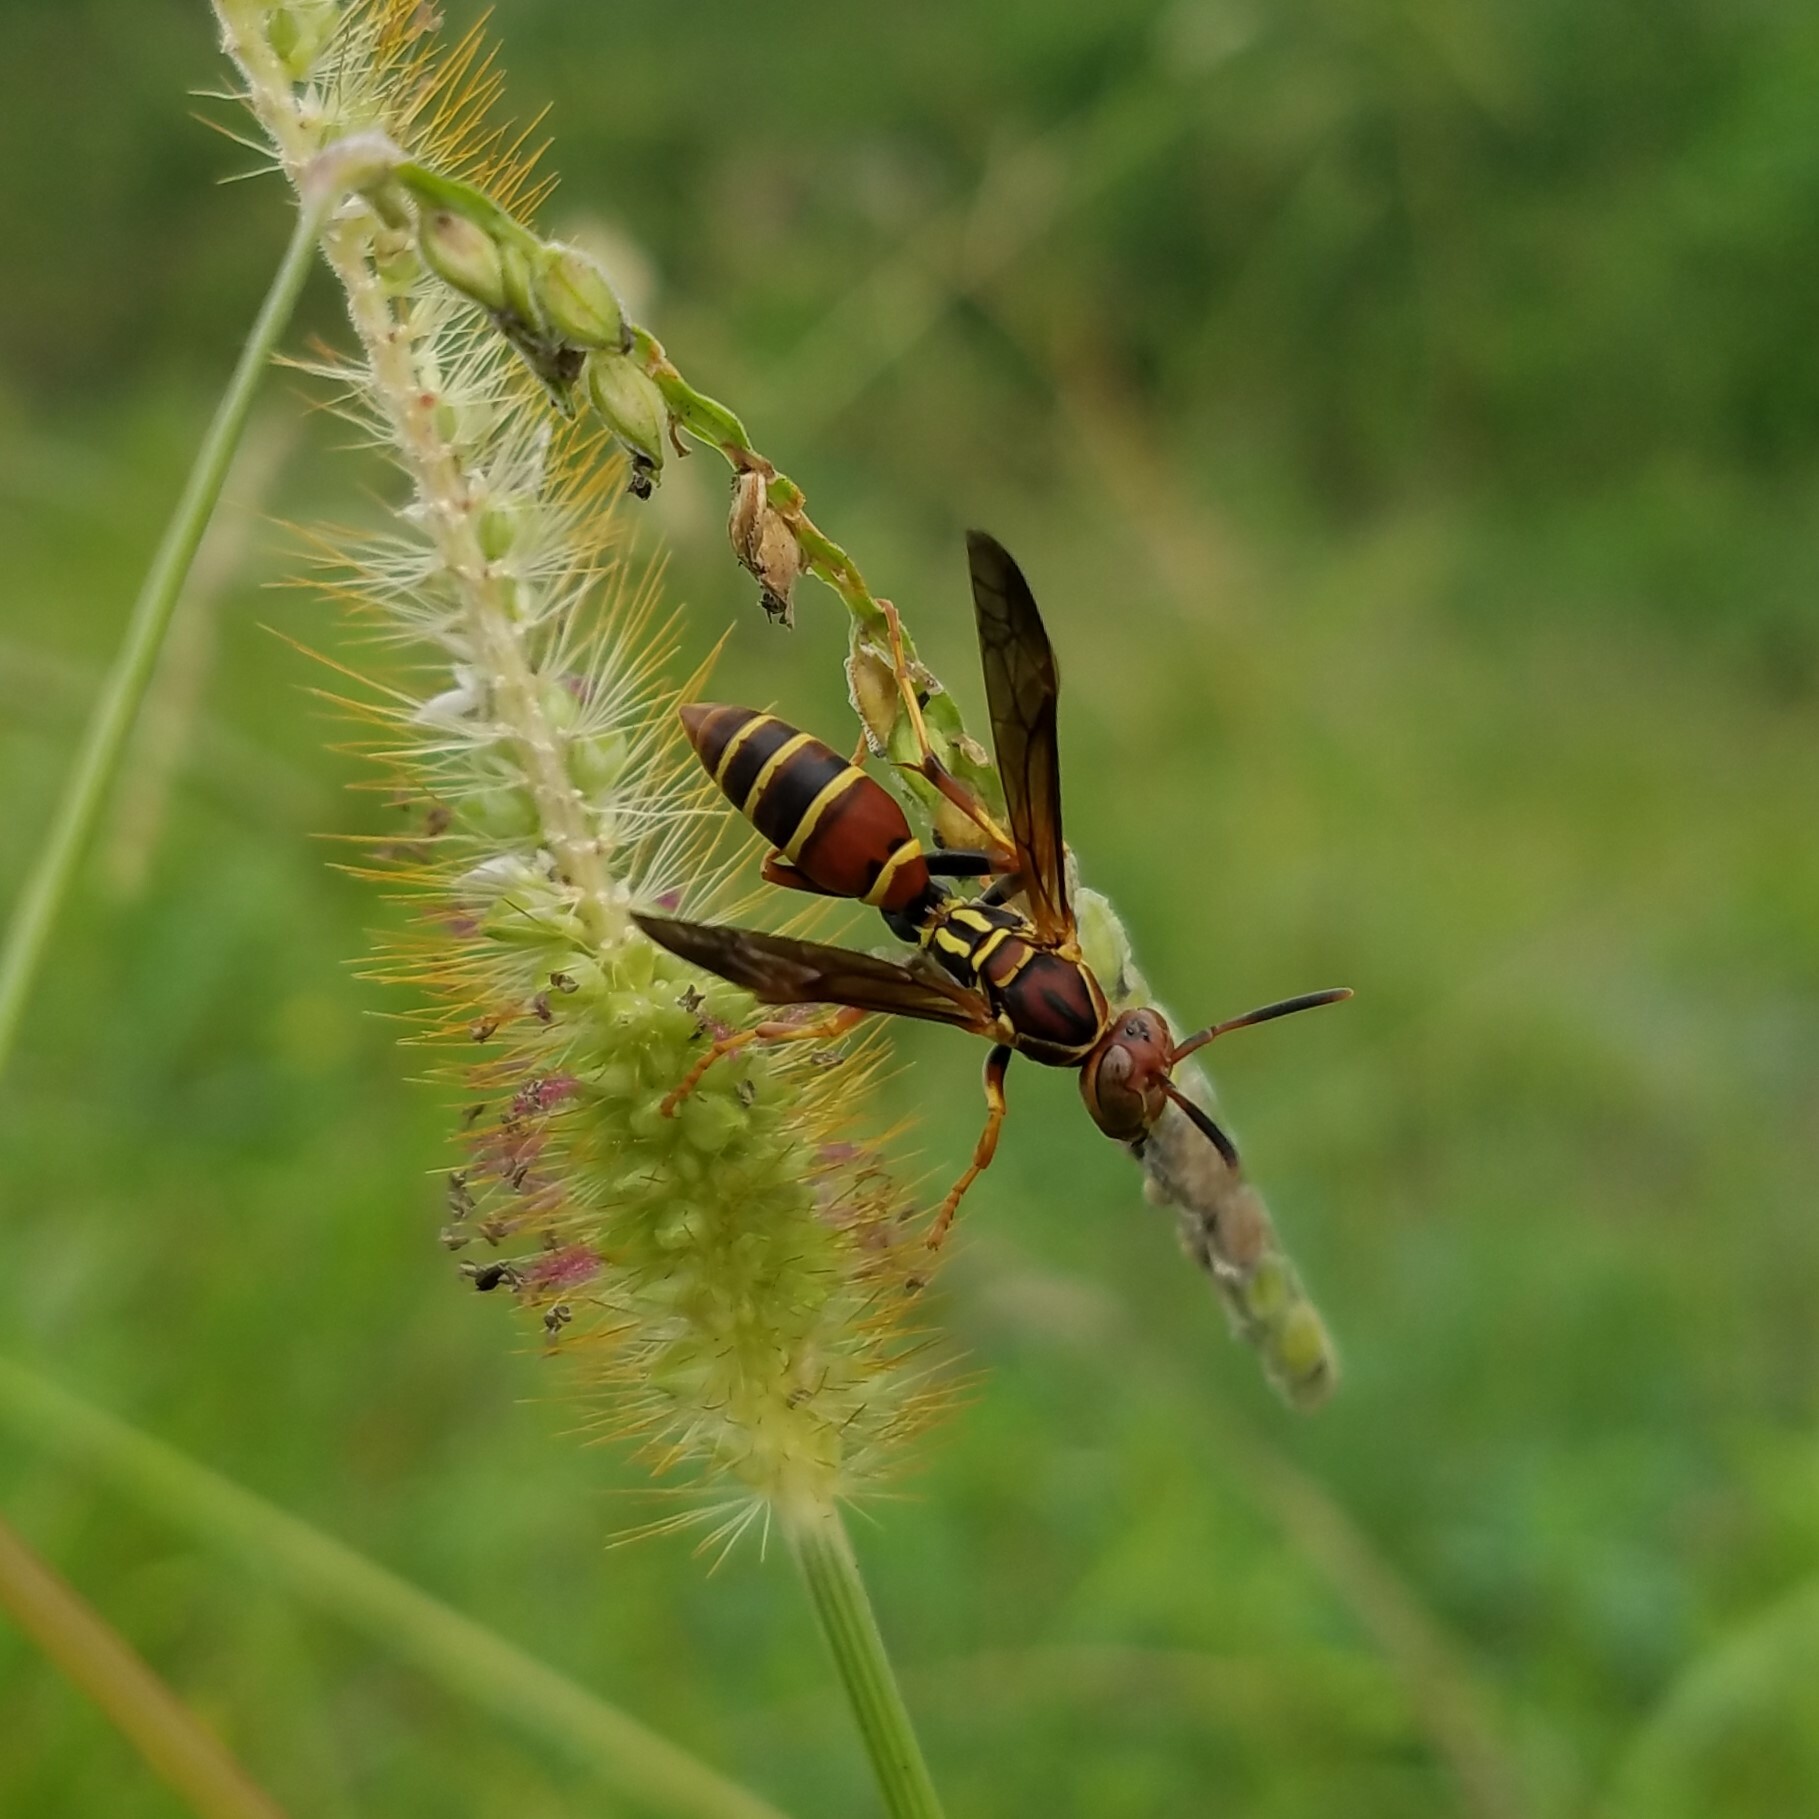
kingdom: Animalia
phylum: Arthropoda
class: Insecta
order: Hymenoptera
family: Eumenidae
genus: Polistes
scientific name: Polistes dorsalis
